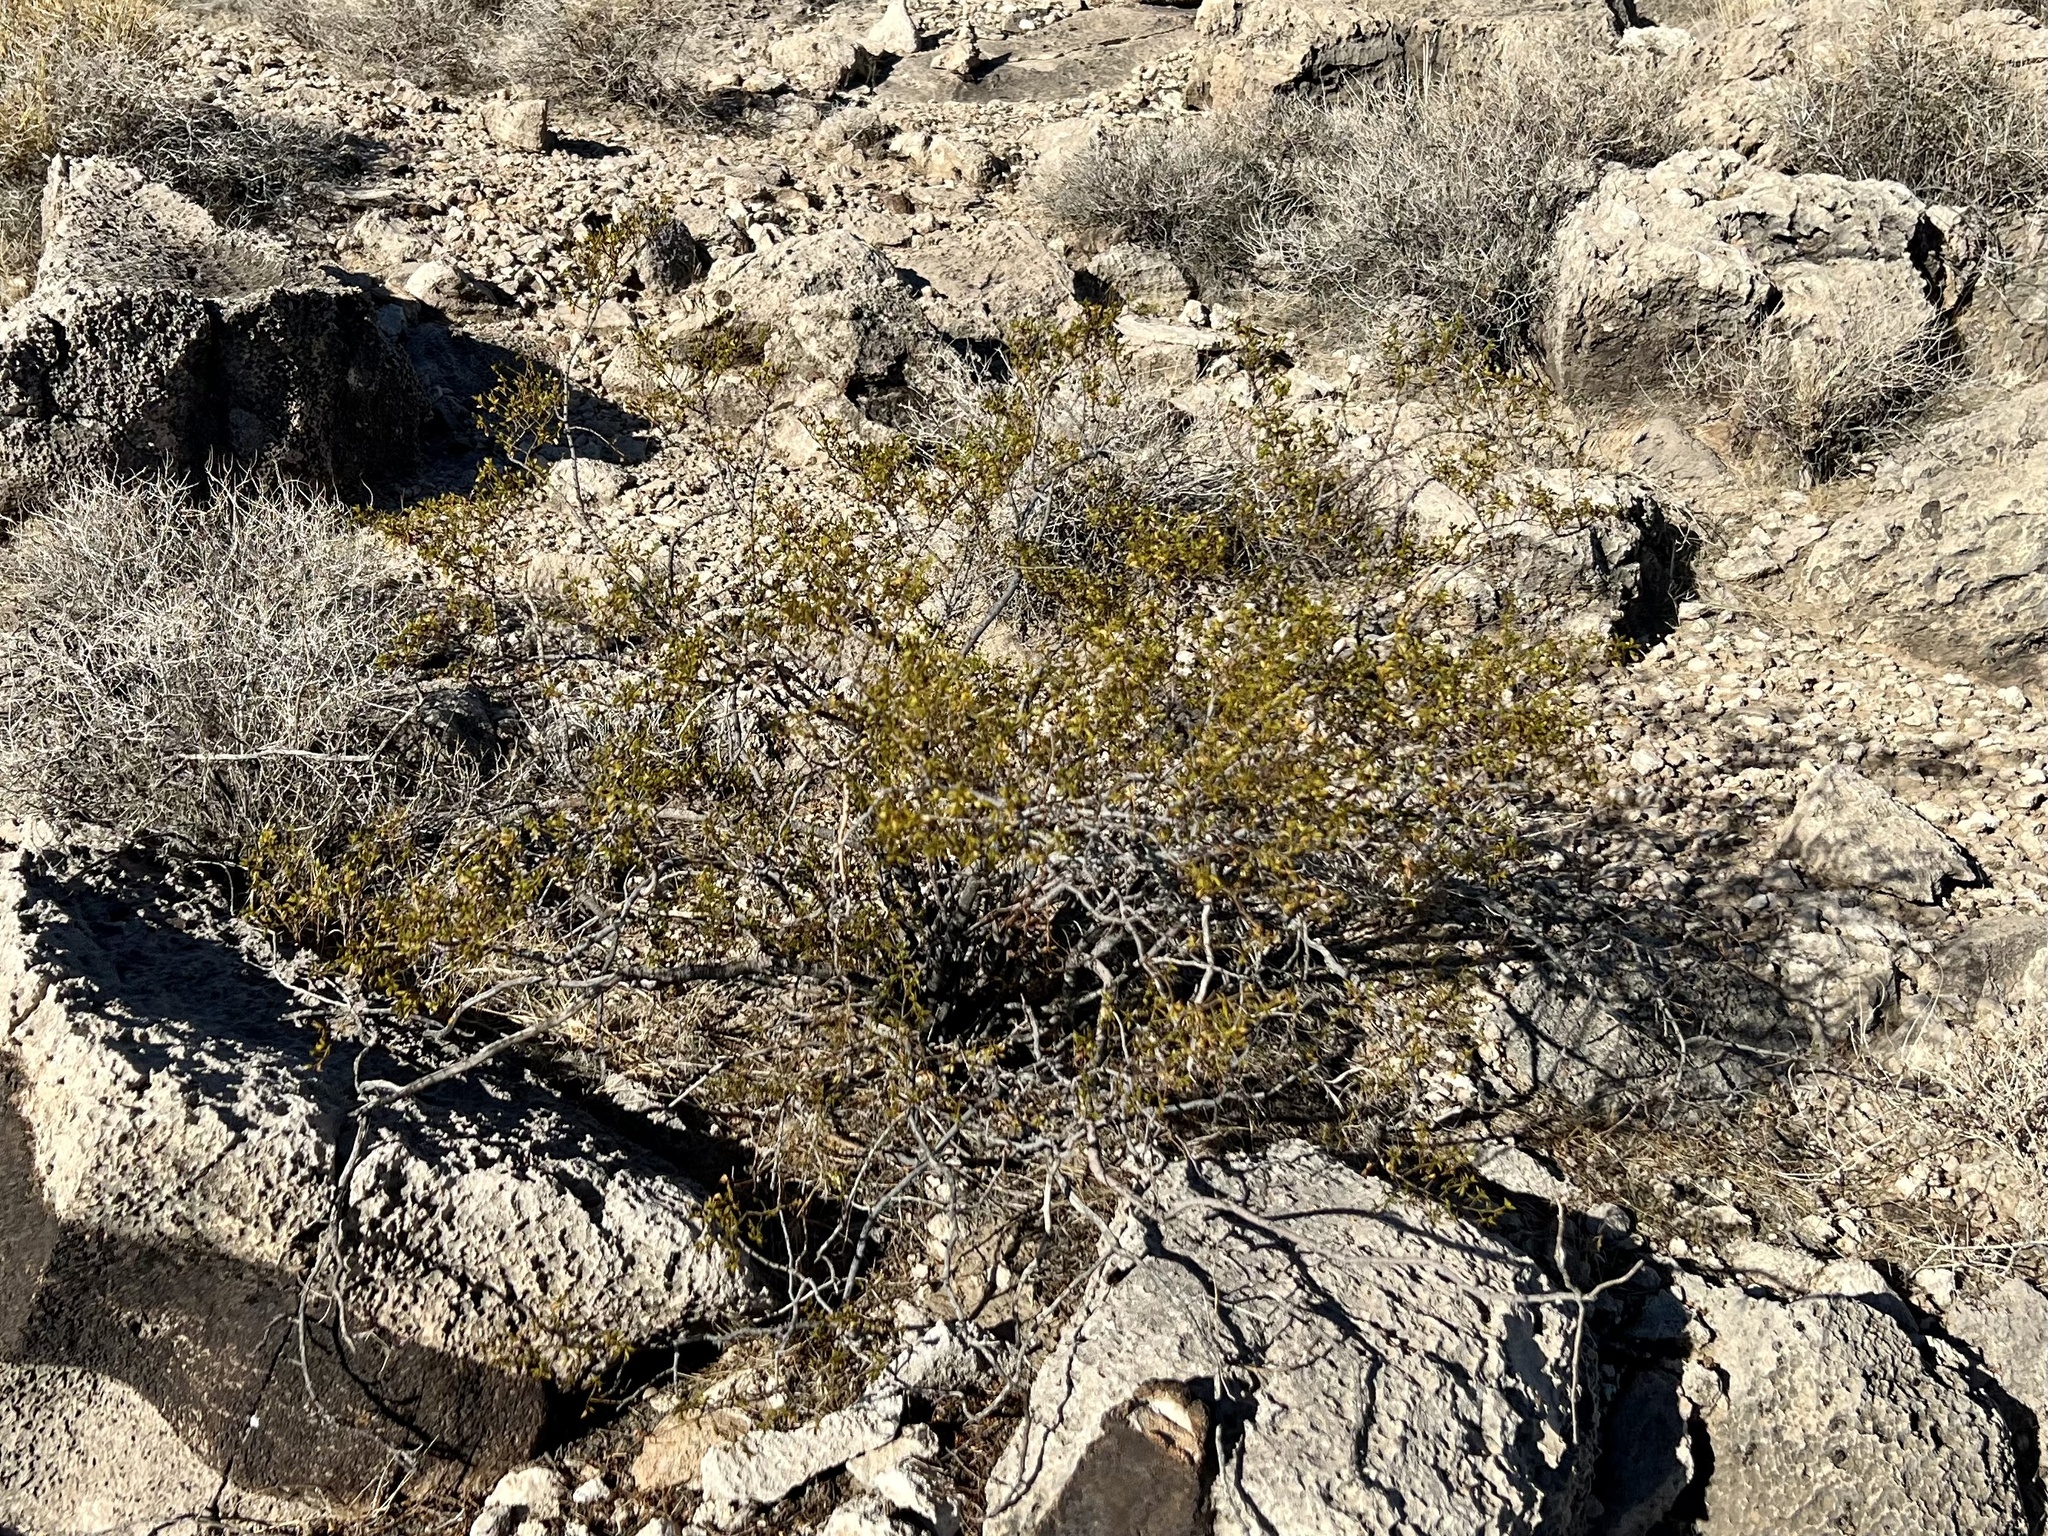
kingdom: Plantae
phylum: Tracheophyta
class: Magnoliopsida
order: Zygophyllales
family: Zygophyllaceae
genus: Larrea
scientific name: Larrea tridentata
